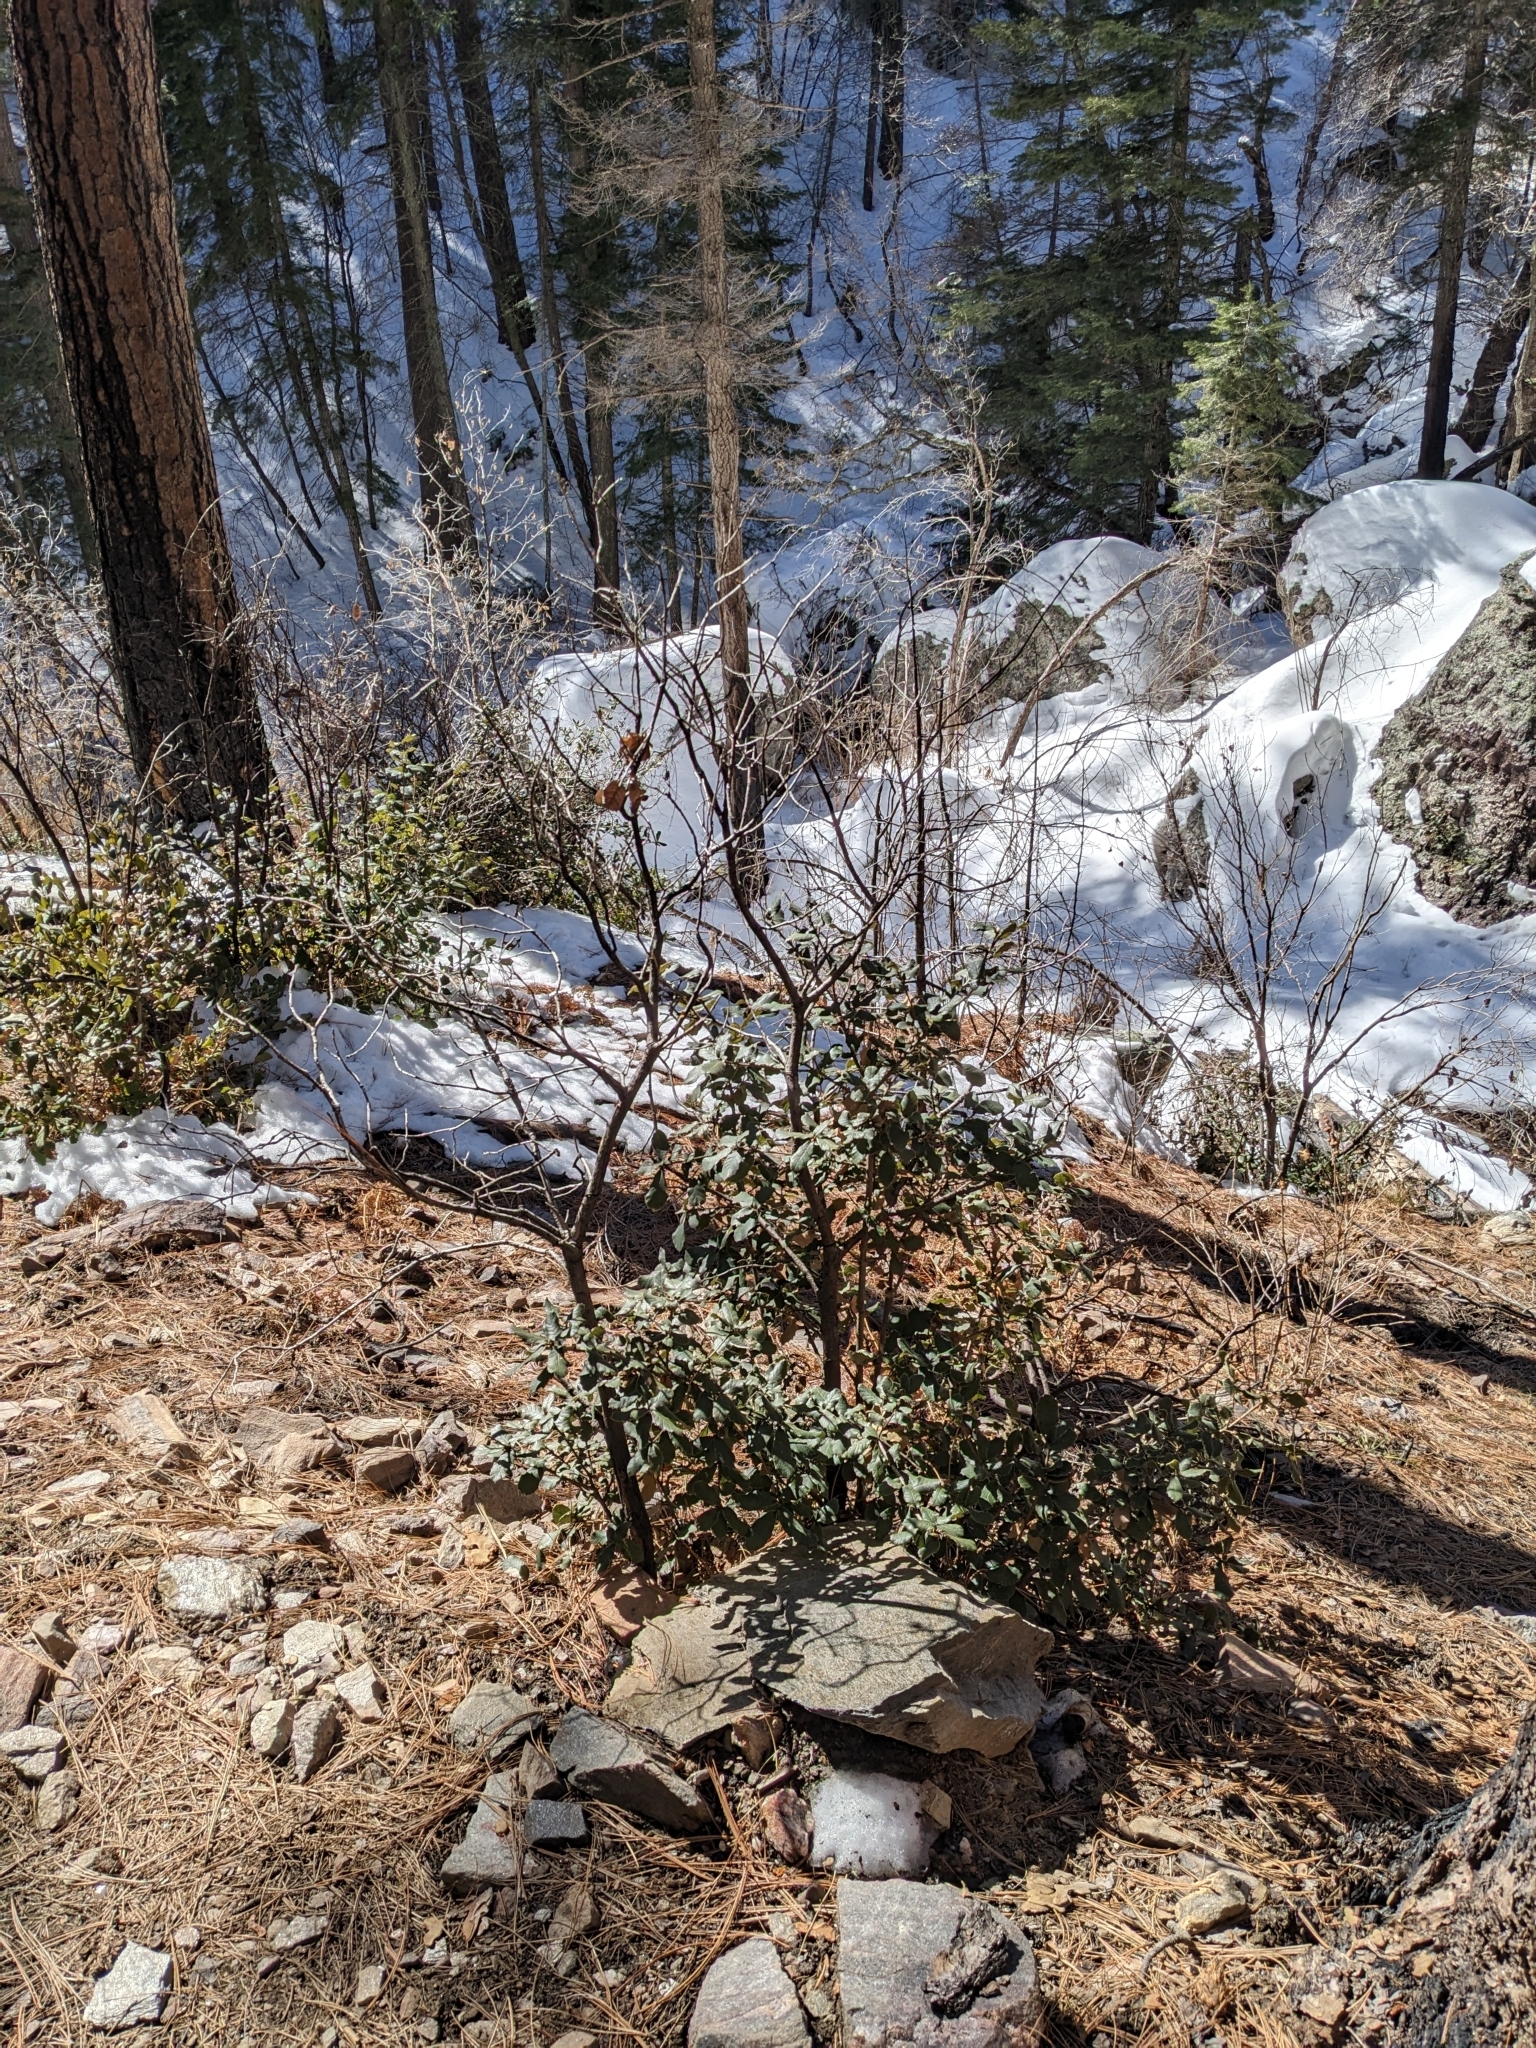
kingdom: Plantae
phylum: Tracheophyta
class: Magnoliopsida
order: Fagales
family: Fagaceae
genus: Quercus
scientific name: Quercus rugosa
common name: Netleaf oak
